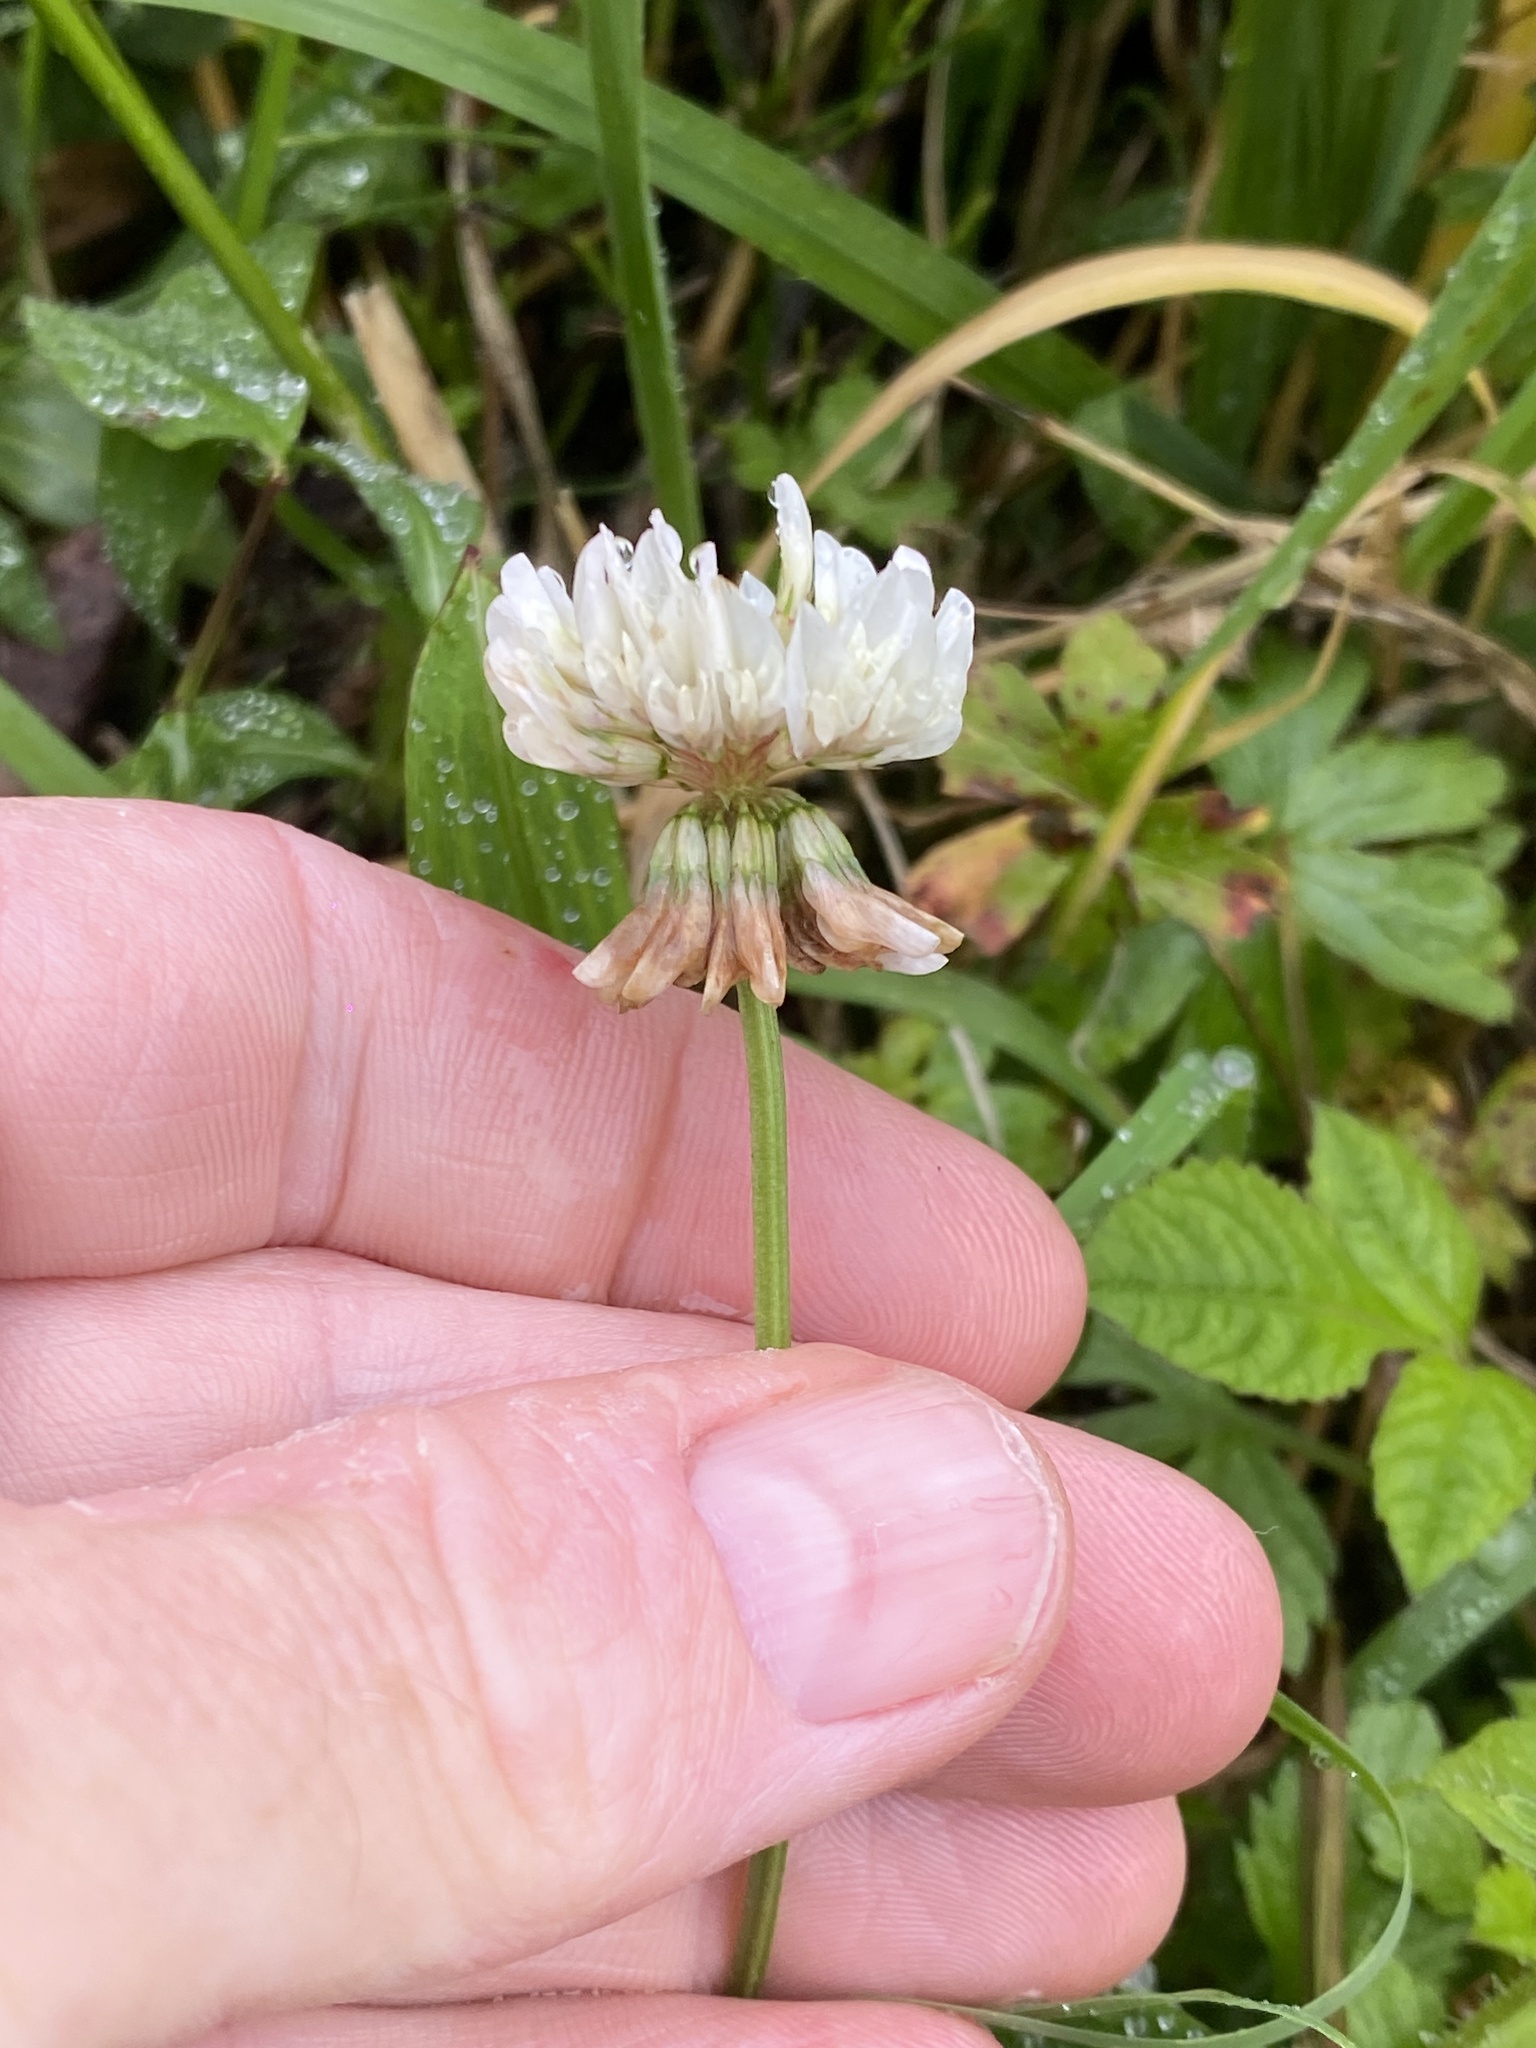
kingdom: Plantae
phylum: Tracheophyta
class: Magnoliopsida
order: Fabales
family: Fabaceae
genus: Trifolium
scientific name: Trifolium repens
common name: White clover
